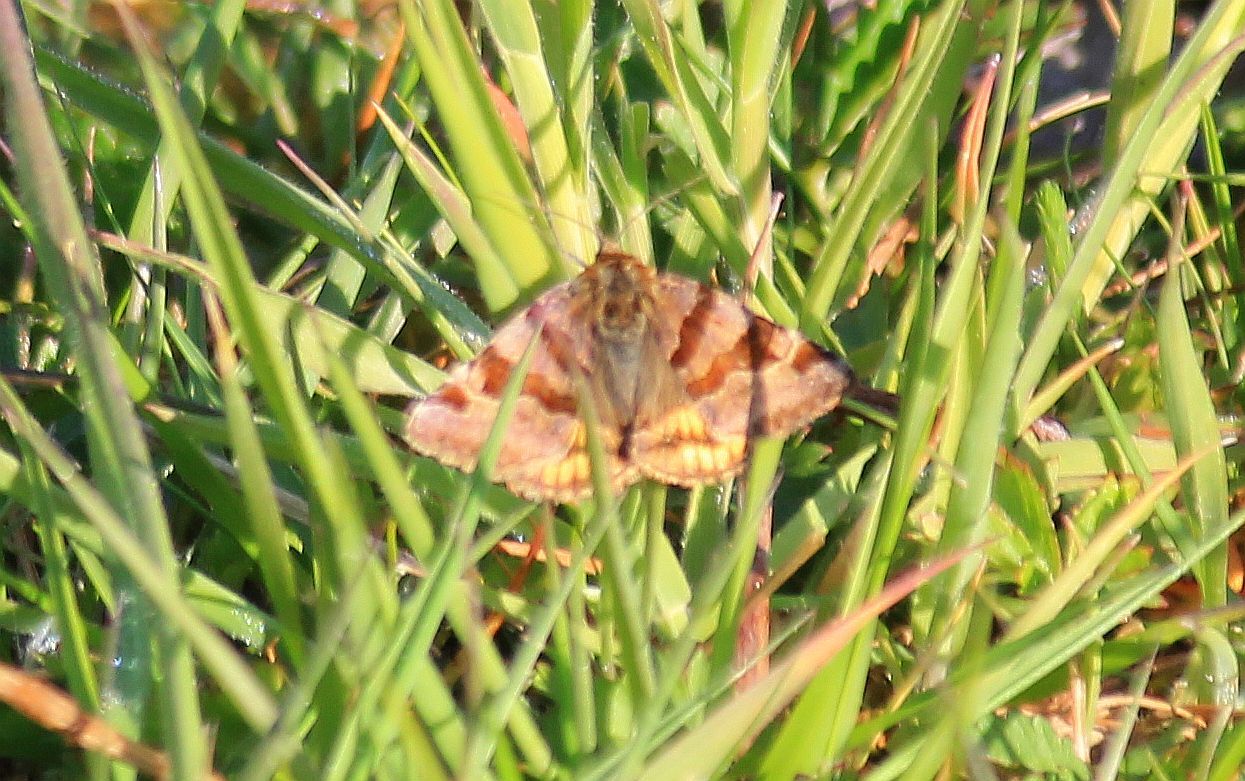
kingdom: Animalia
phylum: Arthropoda
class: Insecta
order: Lepidoptera
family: Erebidae
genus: Euclidia
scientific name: Euclidia glyphica
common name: Burnet companion
